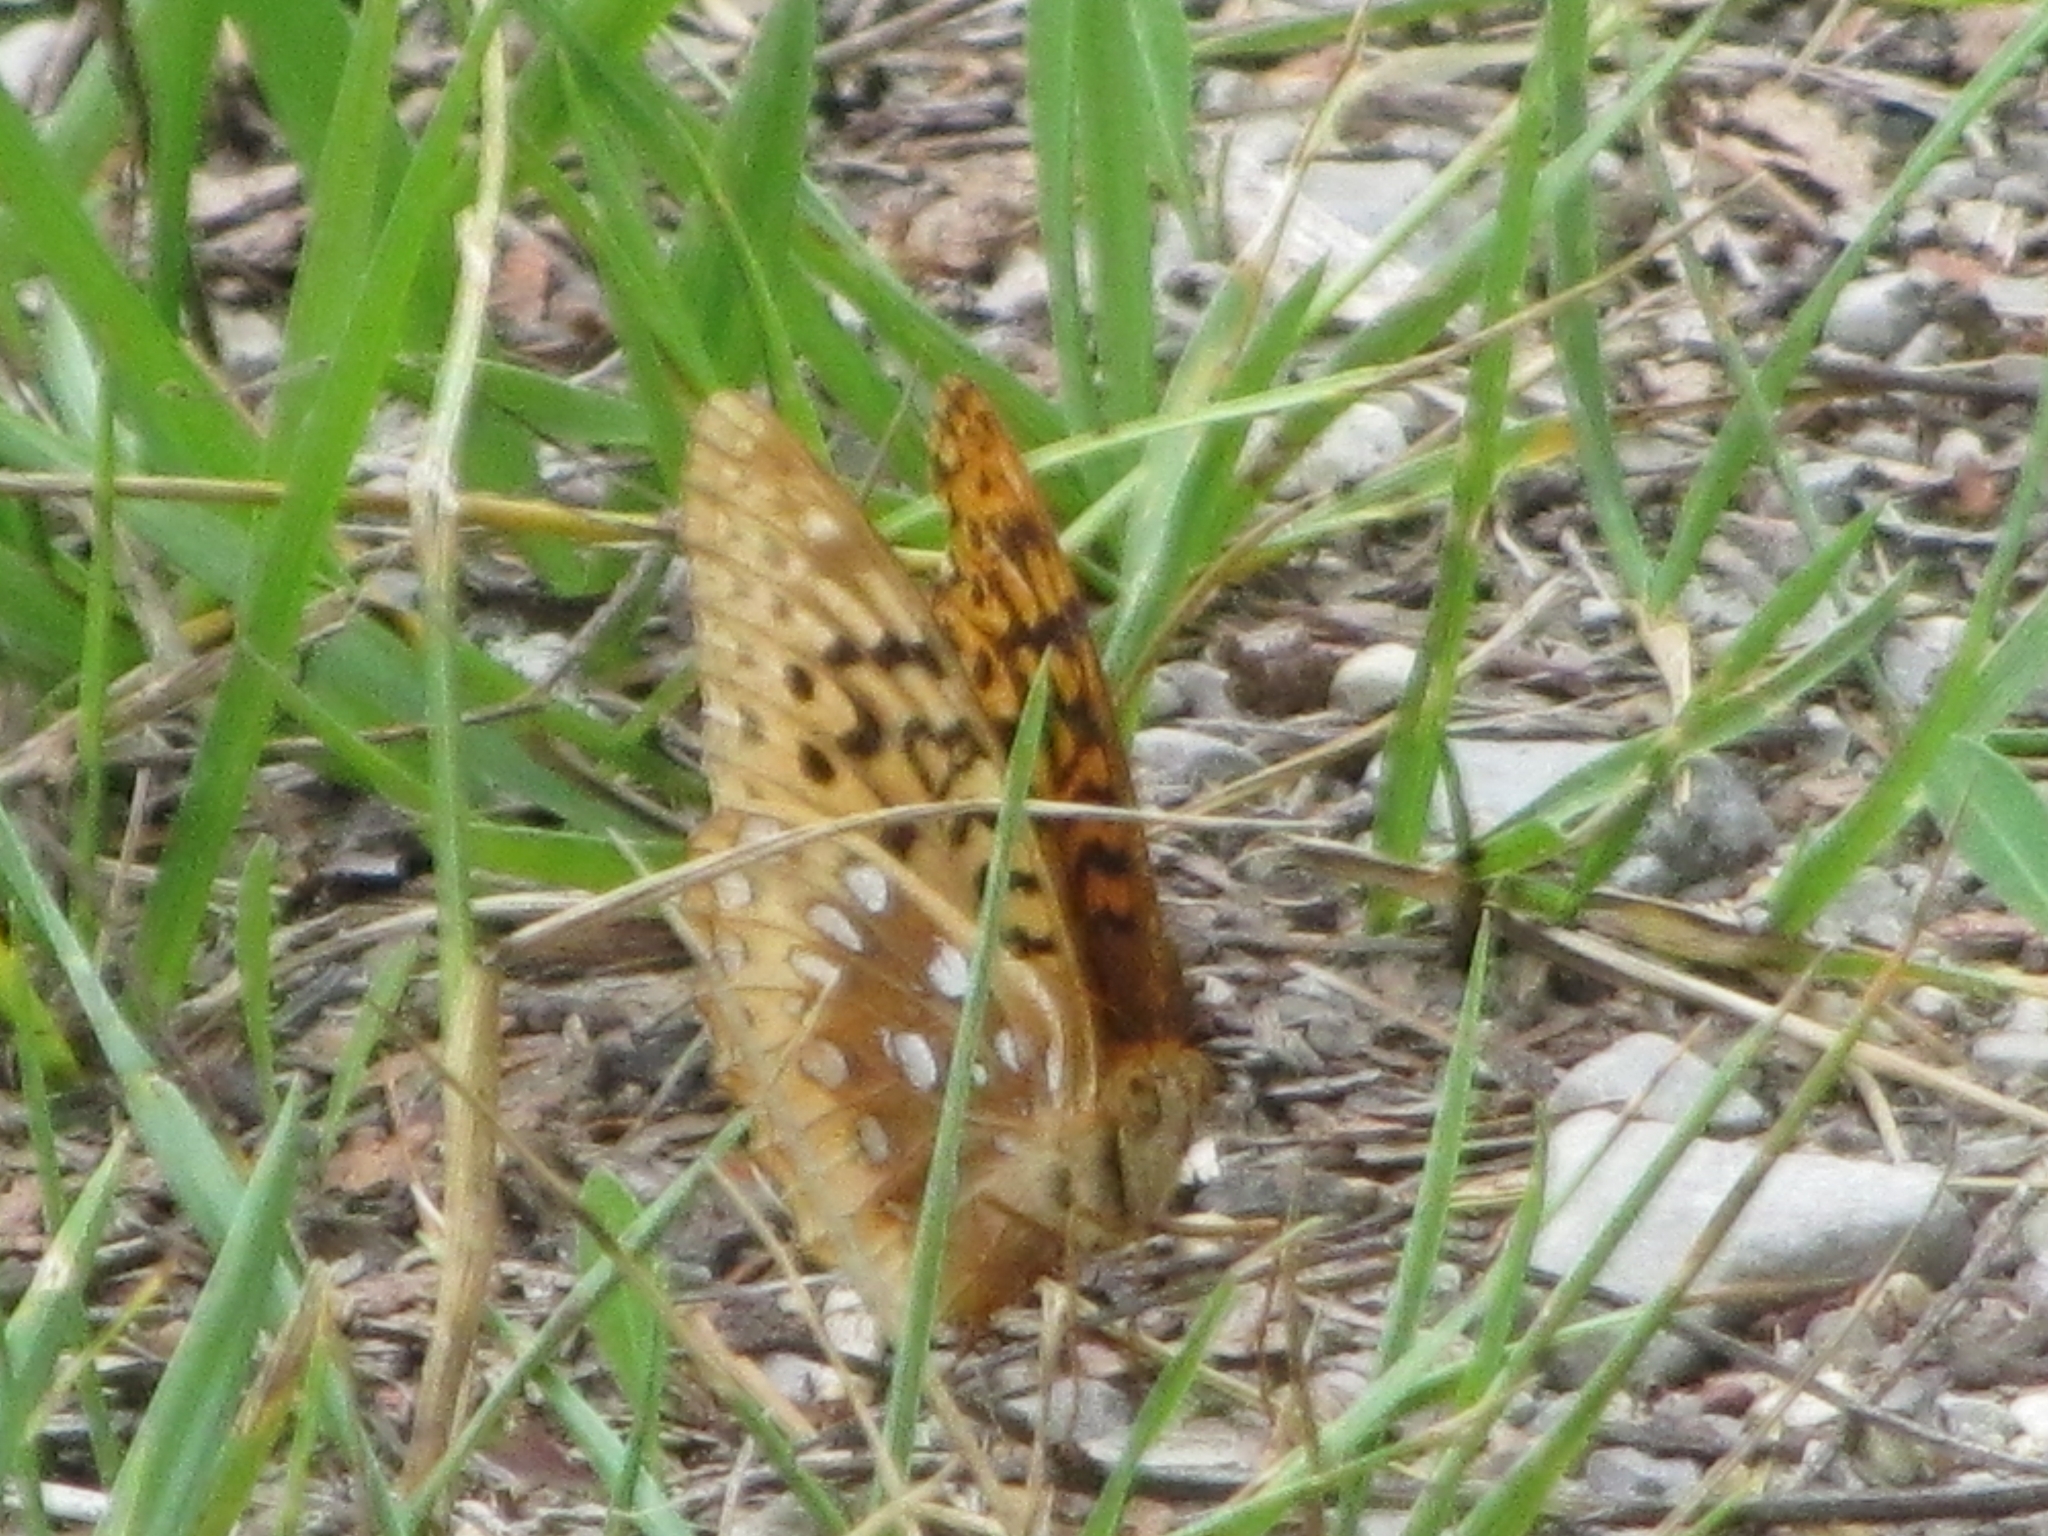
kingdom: Animalia
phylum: Arthropoda
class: Insecta
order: Lepidoptera
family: Nymphalidae
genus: Speyeria
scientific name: Speyeria cybele
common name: Great spangled fritillary
